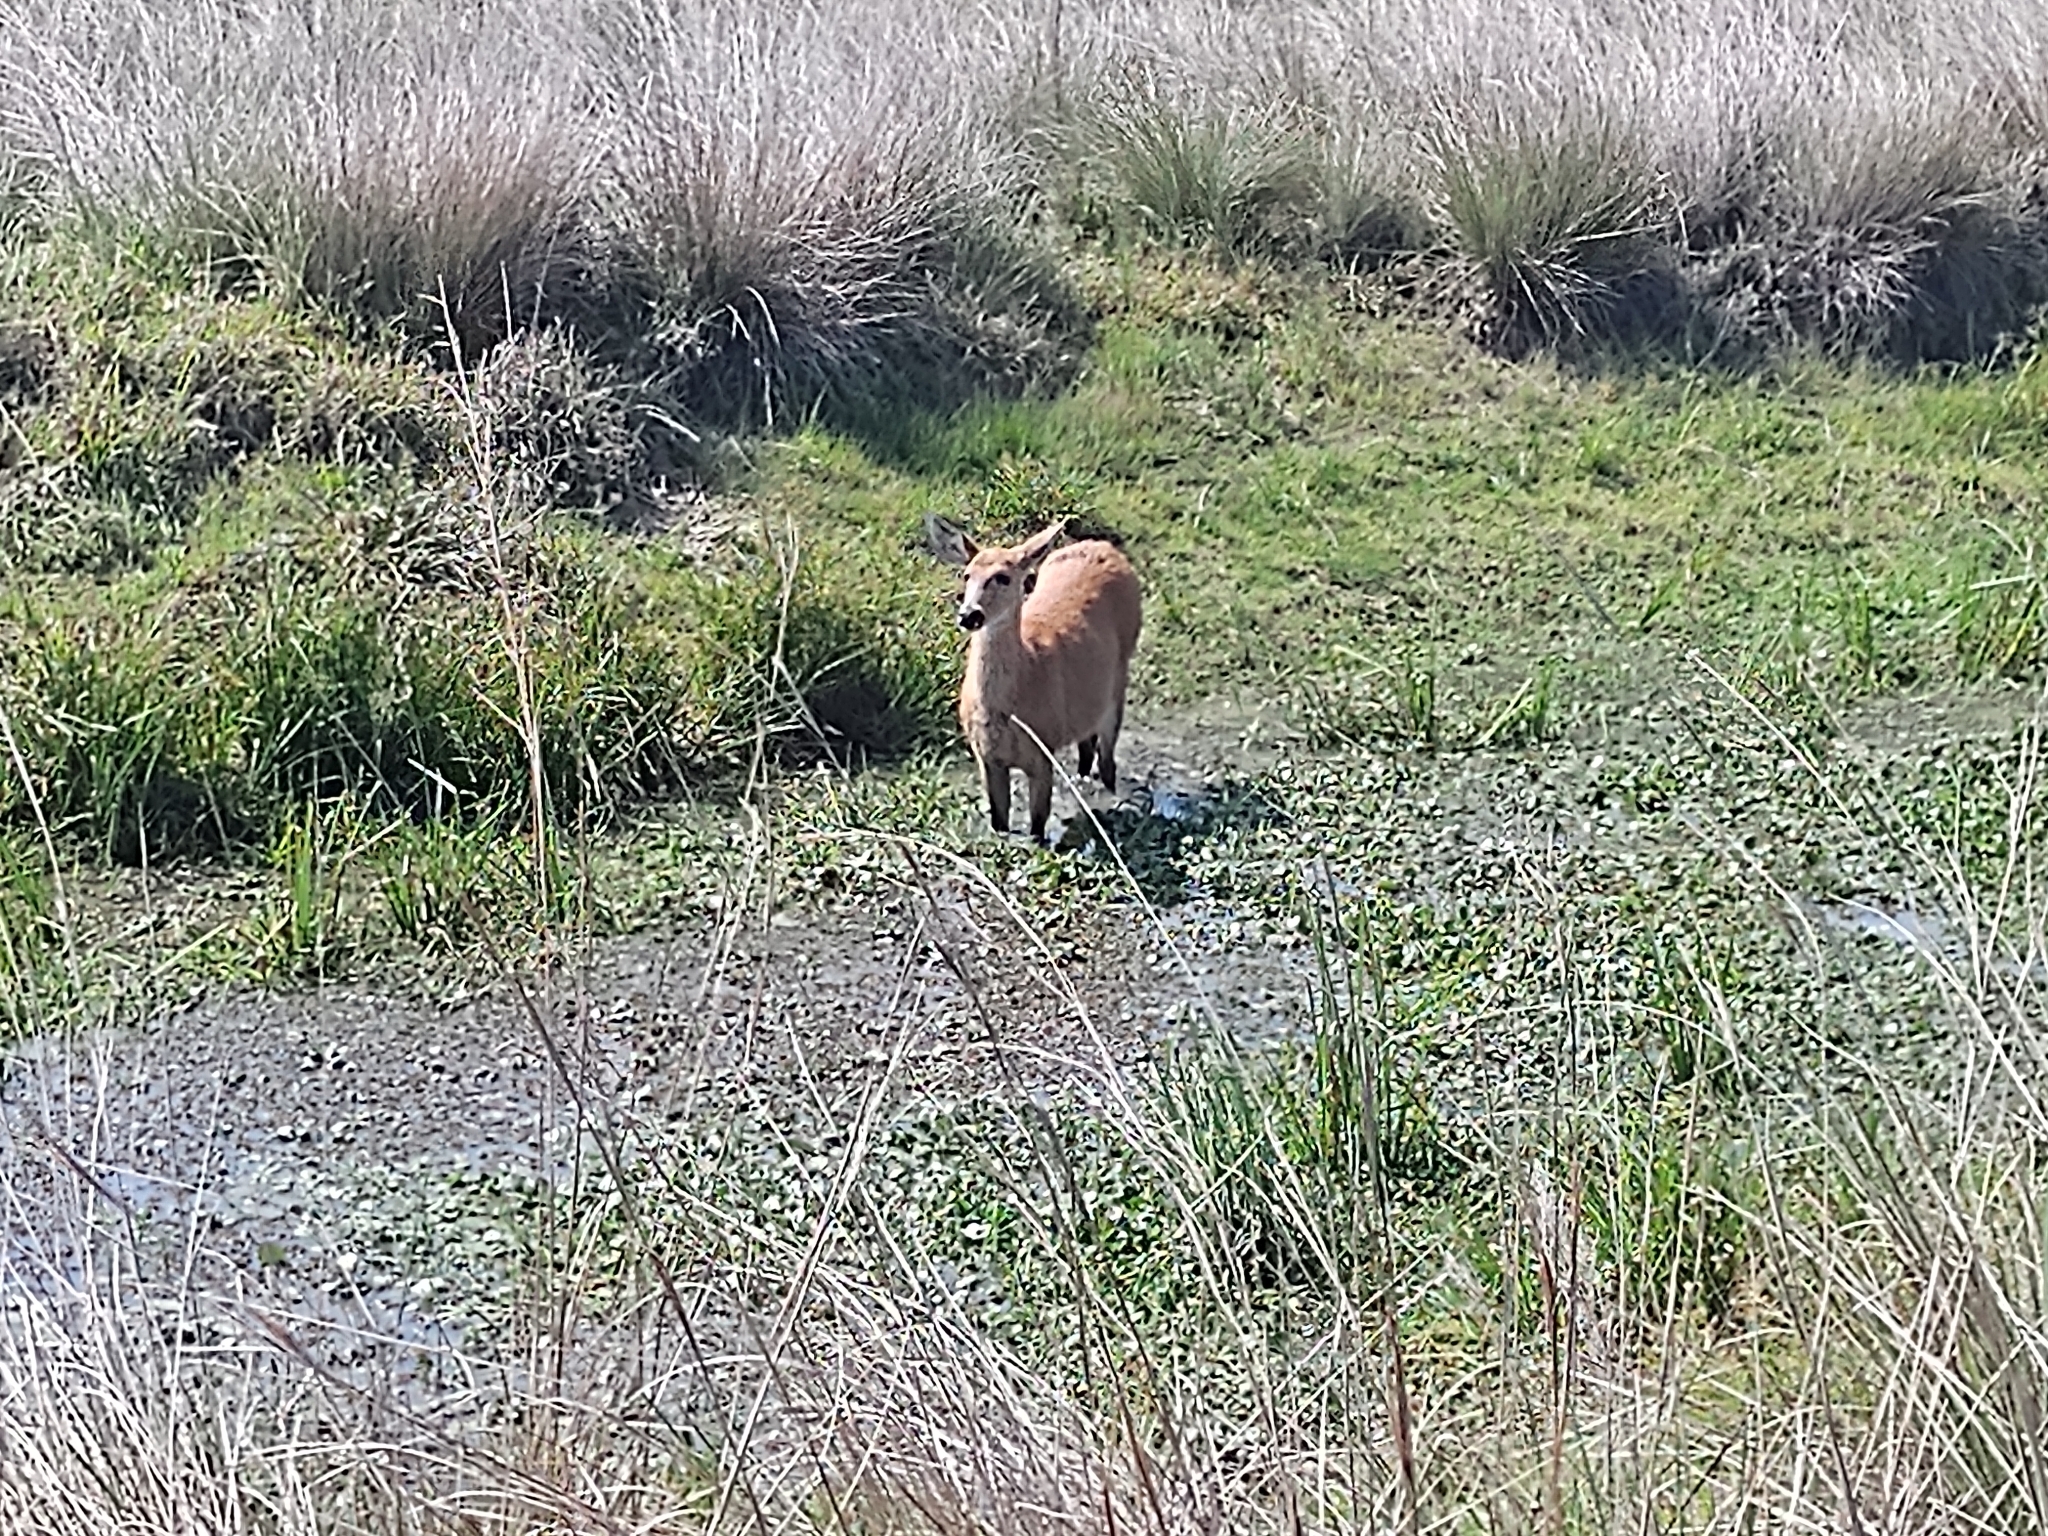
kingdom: Animalia
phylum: Chordata
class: Mammalia
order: Artiodactyla
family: Cervidae
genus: Blastocerus
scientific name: Blastocerus dichotomus
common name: Marsh deer
